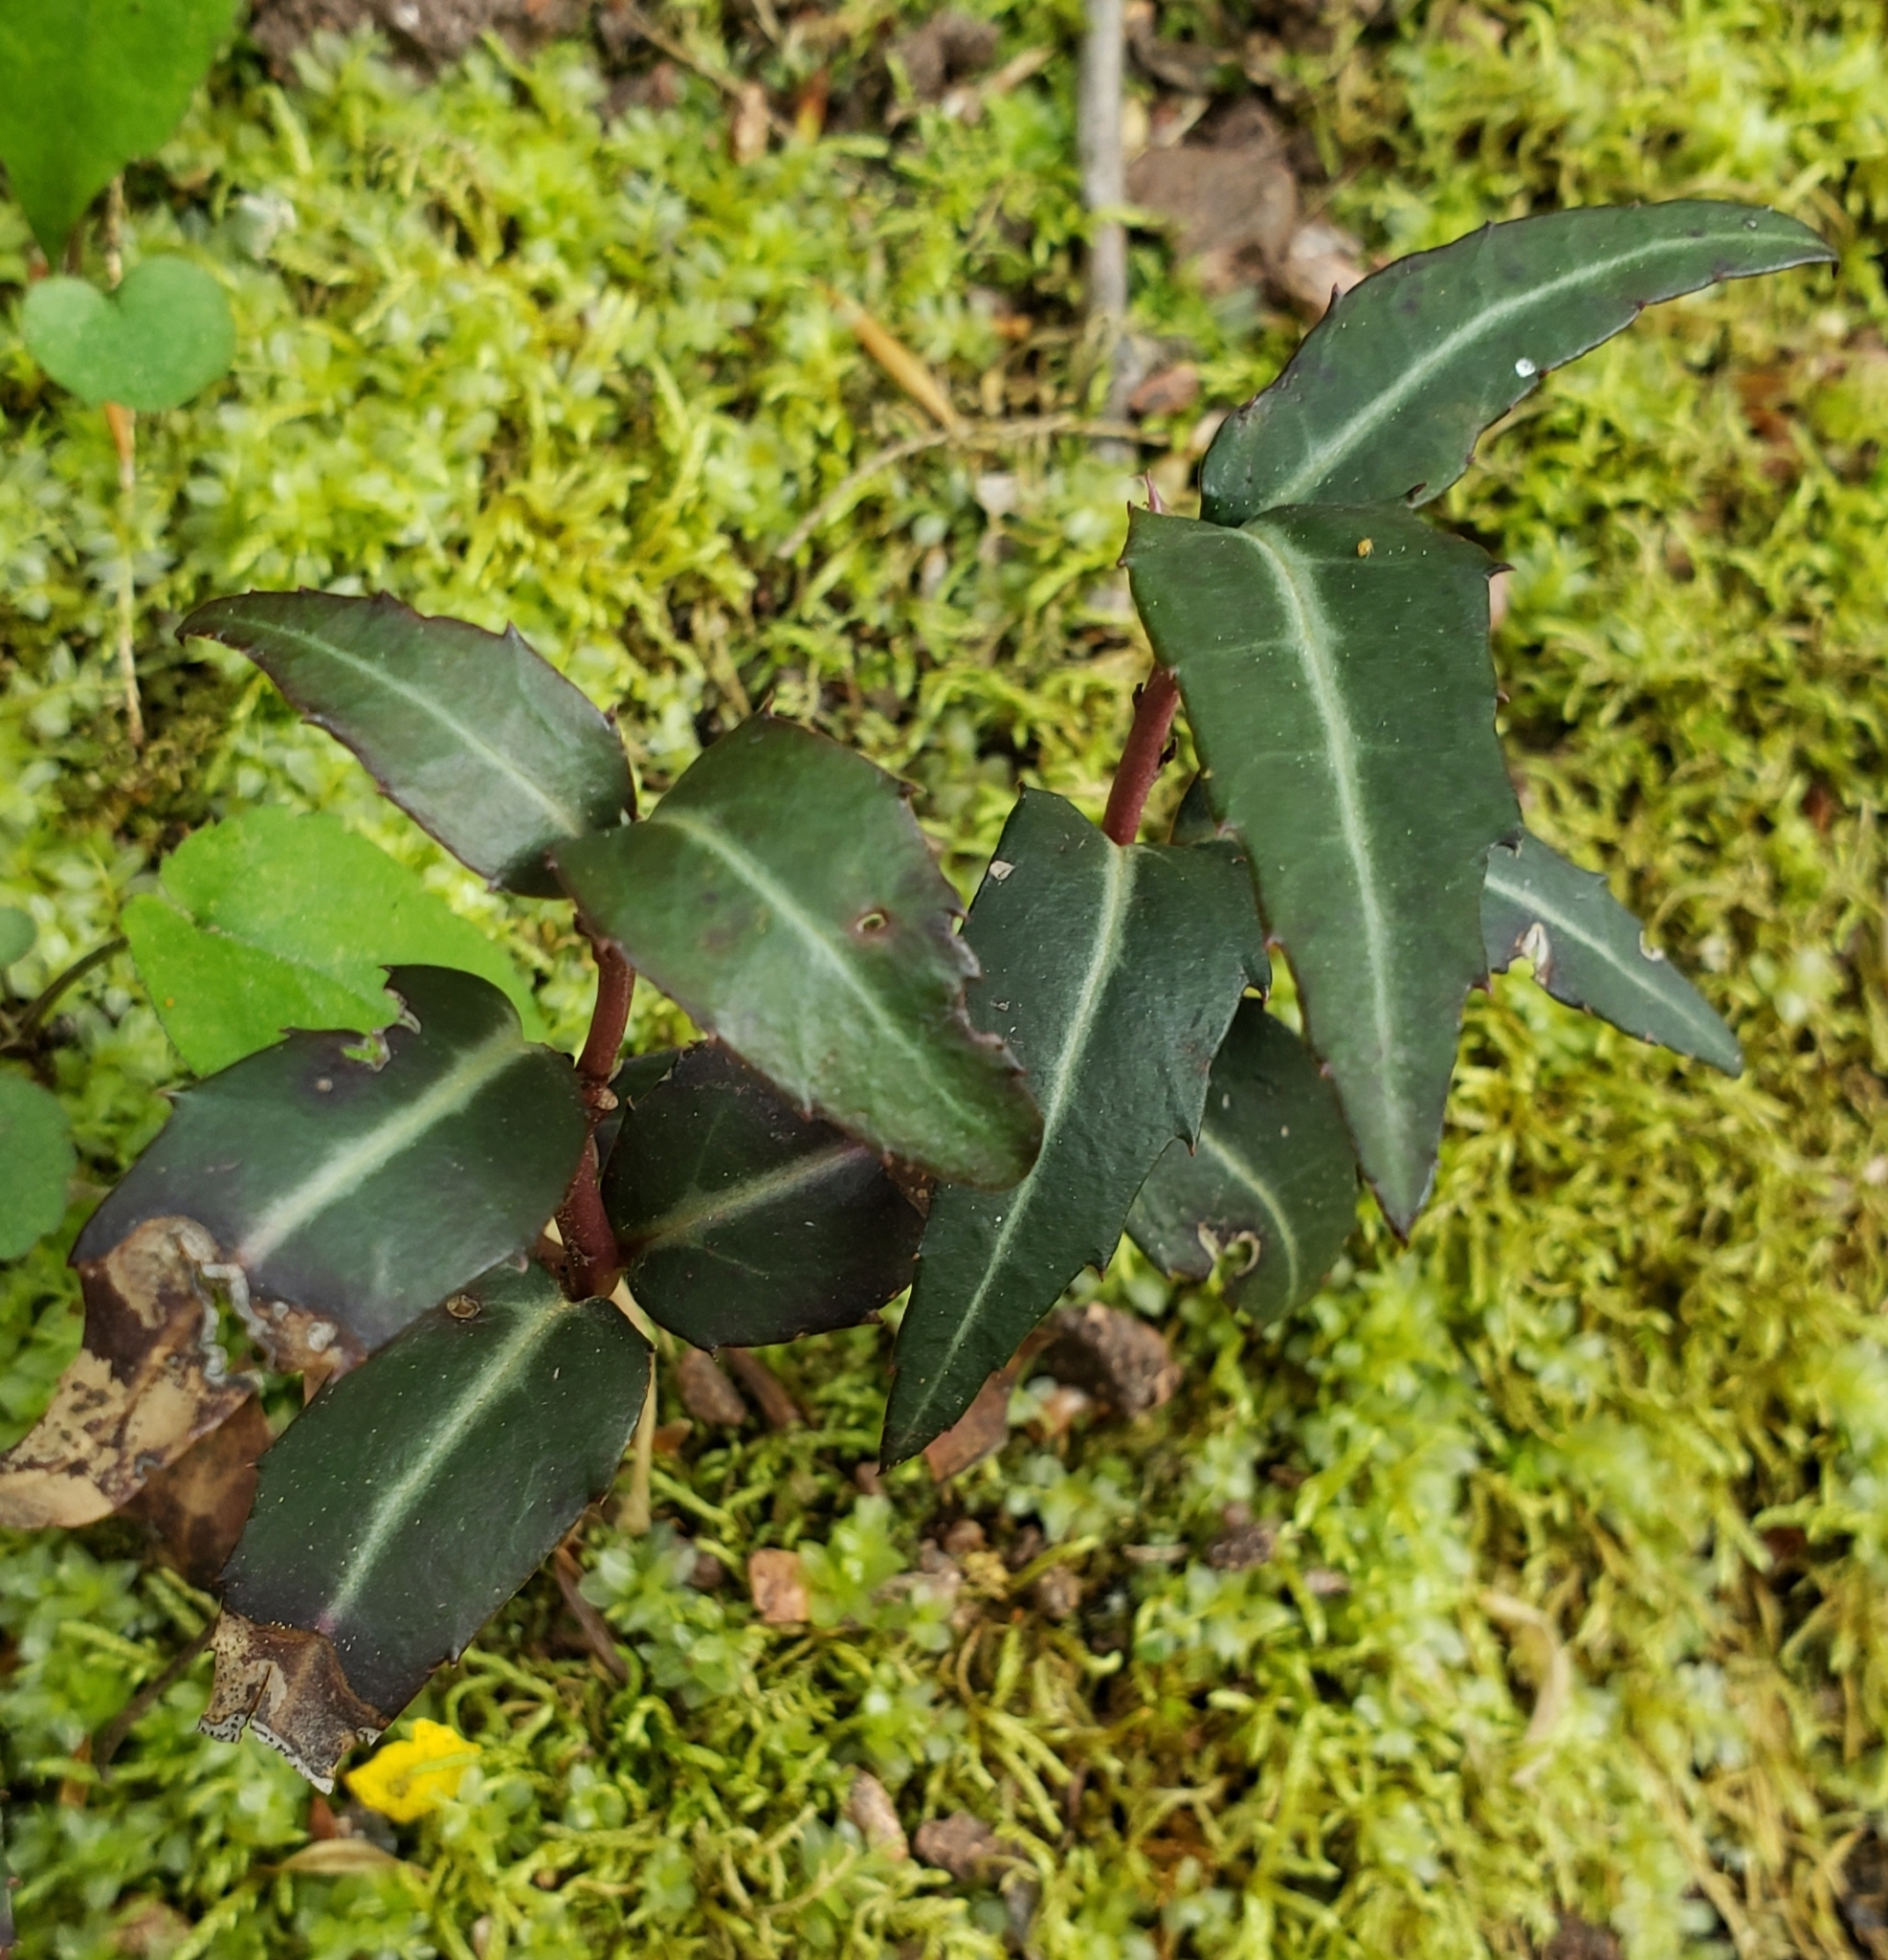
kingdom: Plantae
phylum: Tracheophyta
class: Magnoliopsida
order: Ericales
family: Ericaceae
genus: Chimaphila
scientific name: Chimaphila maculata
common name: Spotted pipsissewa
